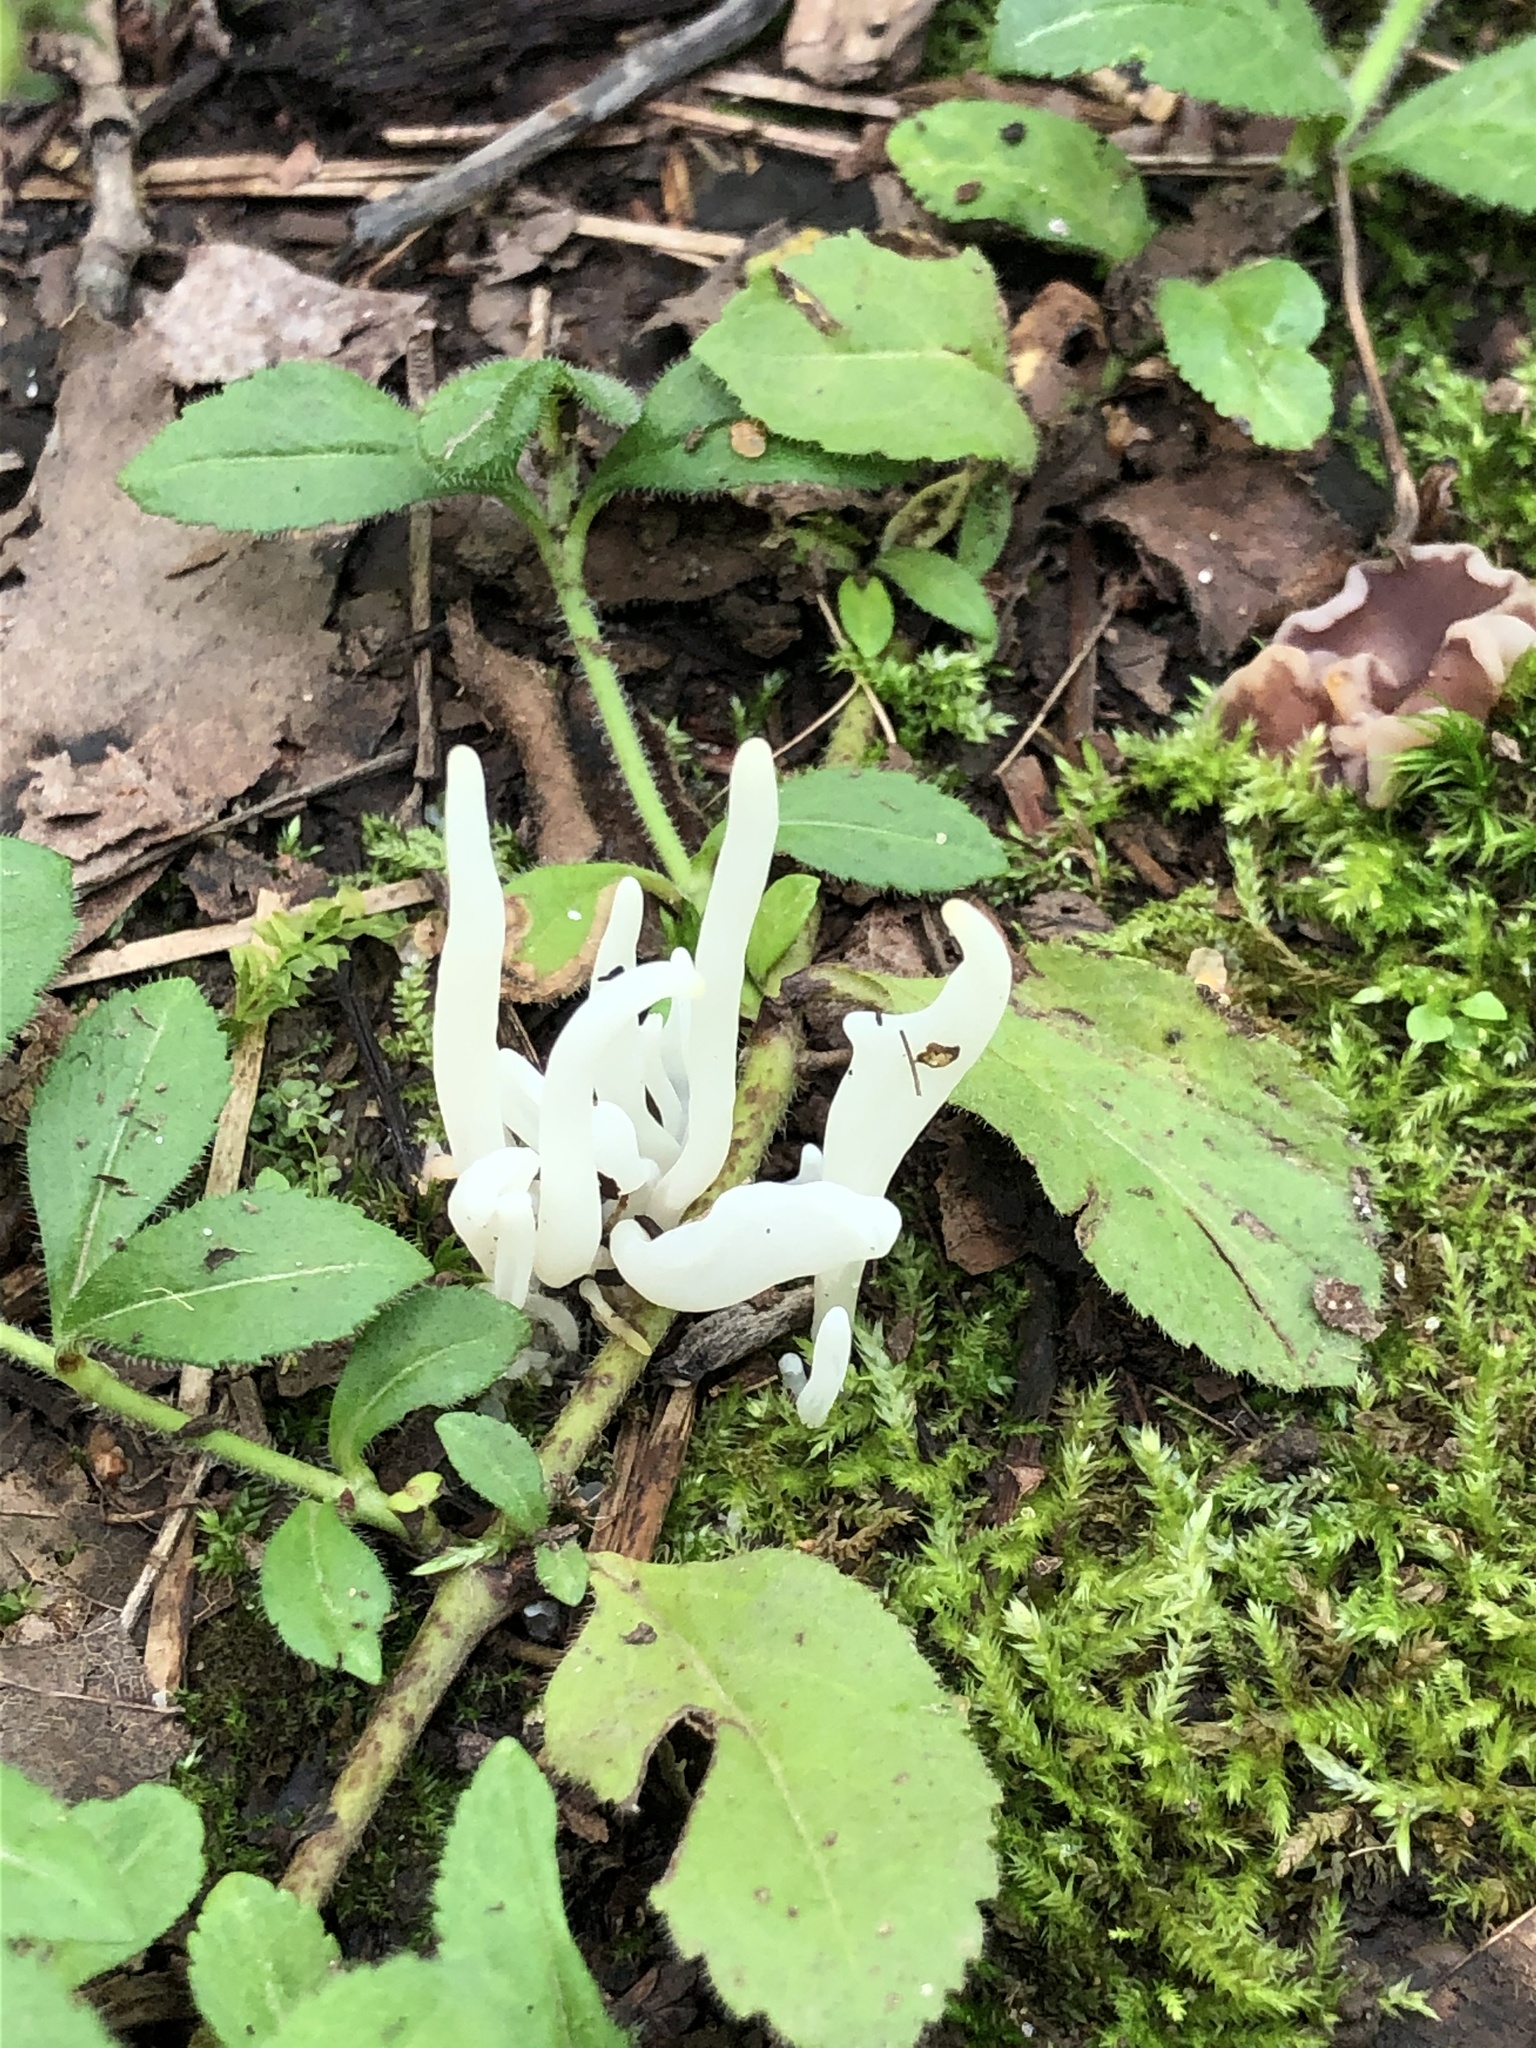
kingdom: Fungi
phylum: Basidiomycota
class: Agaricomycetes
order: Agaricales
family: Clavariaceae
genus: Clavaria
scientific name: Clavaria fragilis
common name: White spindles
